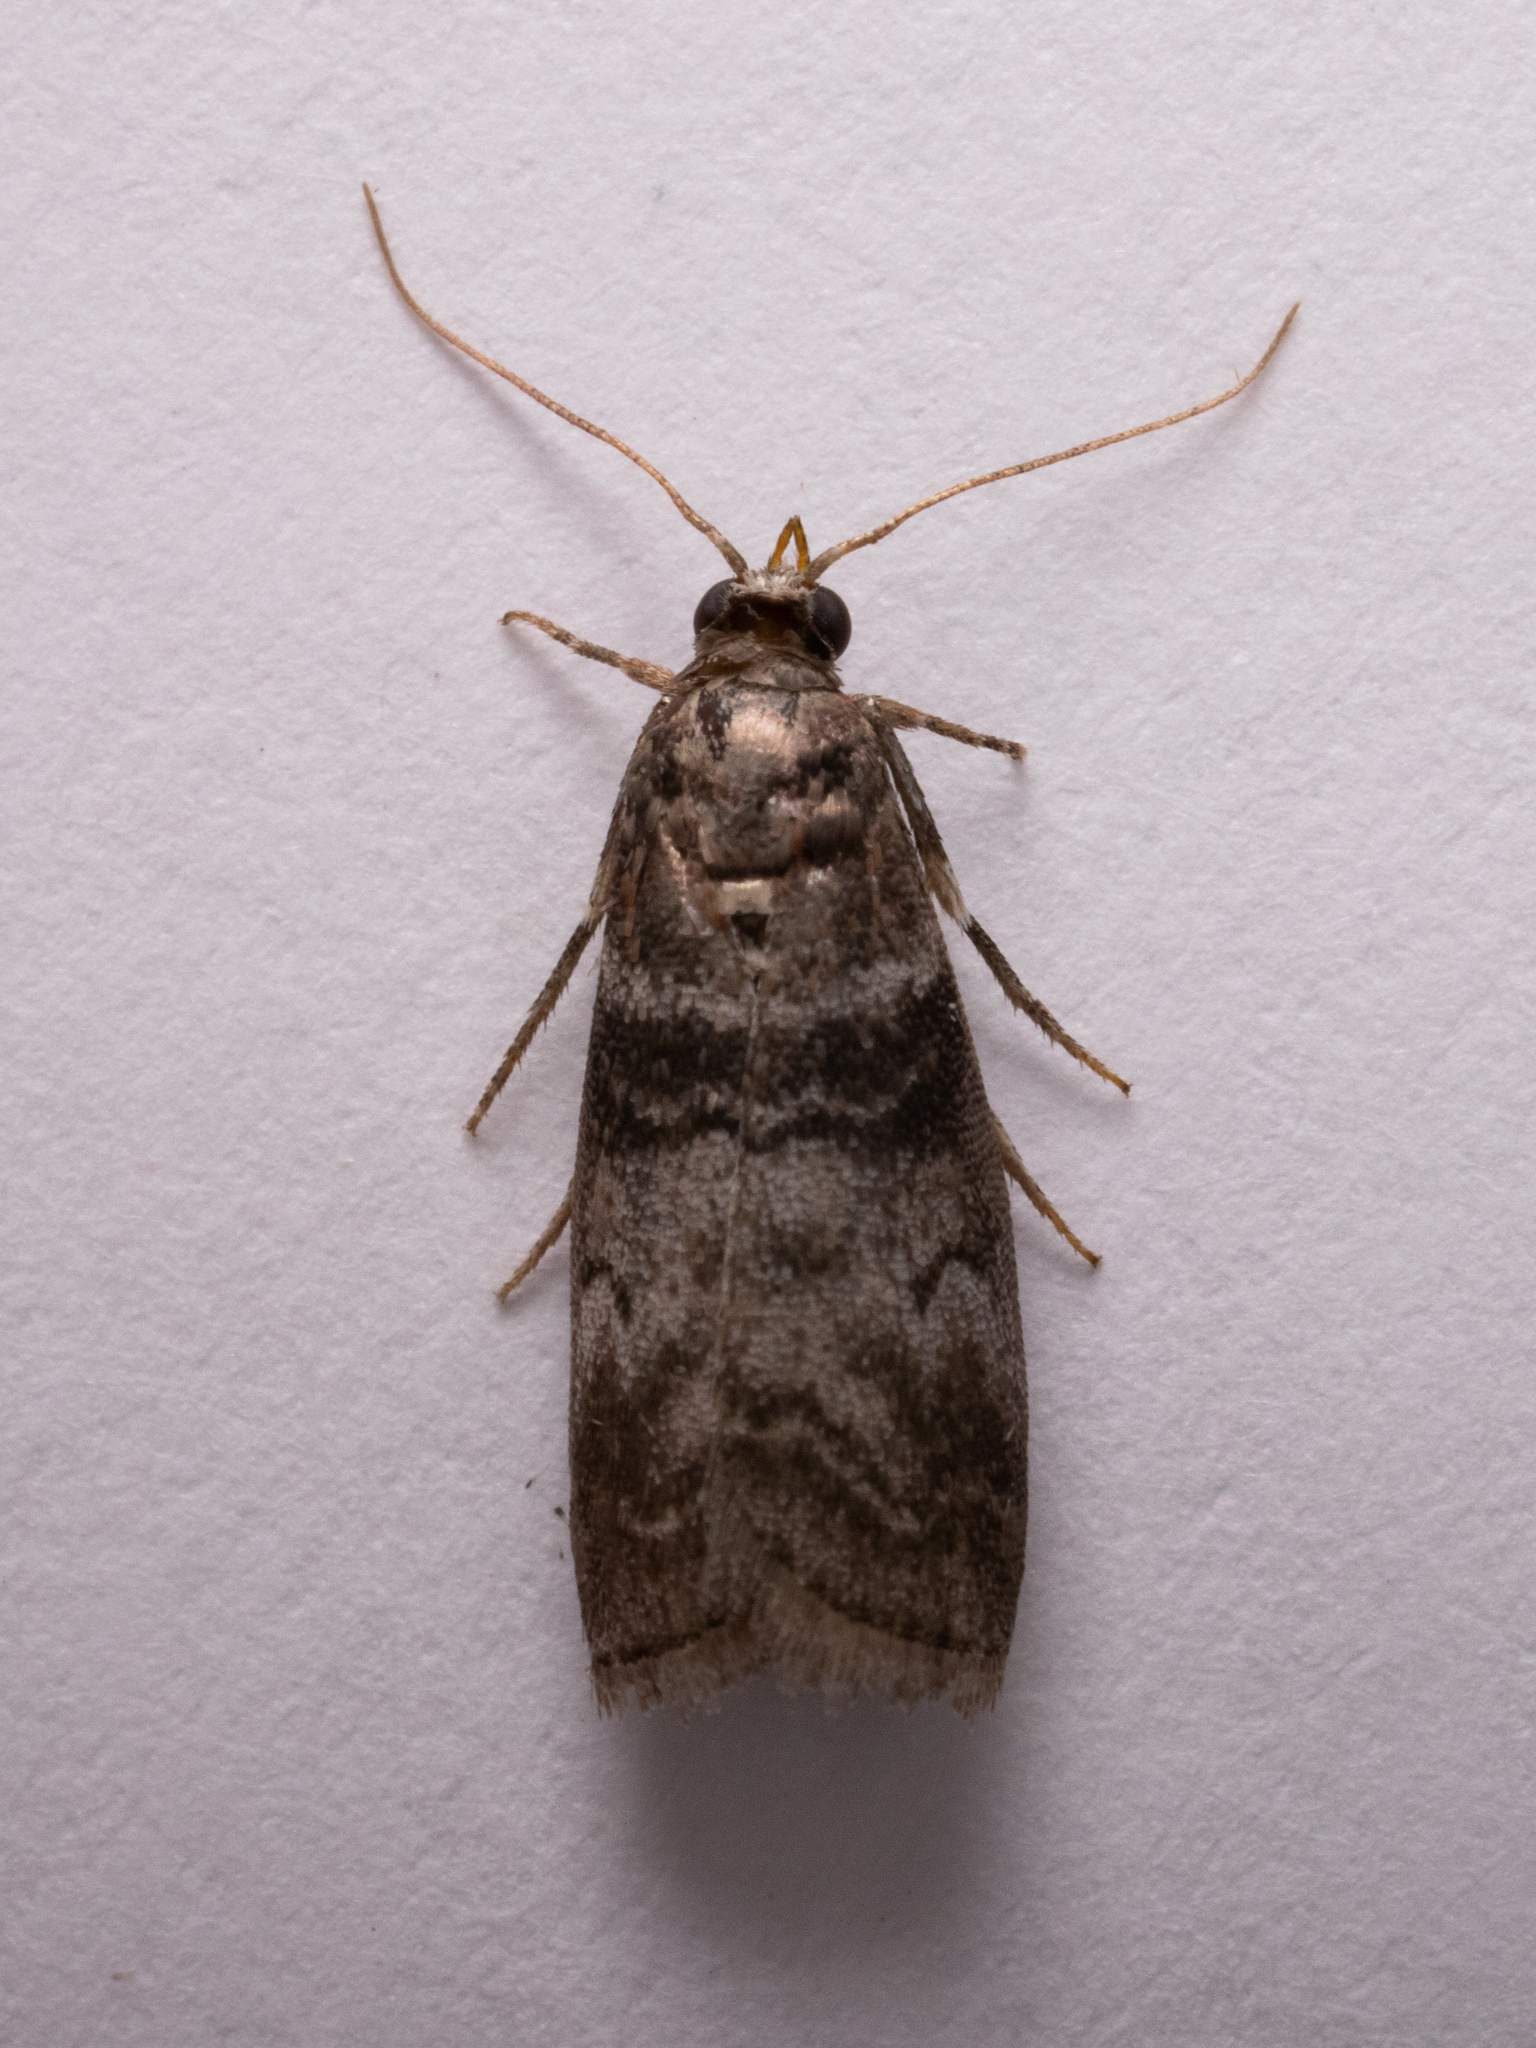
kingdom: Animalia
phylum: Arthropoda
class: Insecta
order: Lepidoptera
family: Pyralidae
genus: Sciota
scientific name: Sciota uvinella
